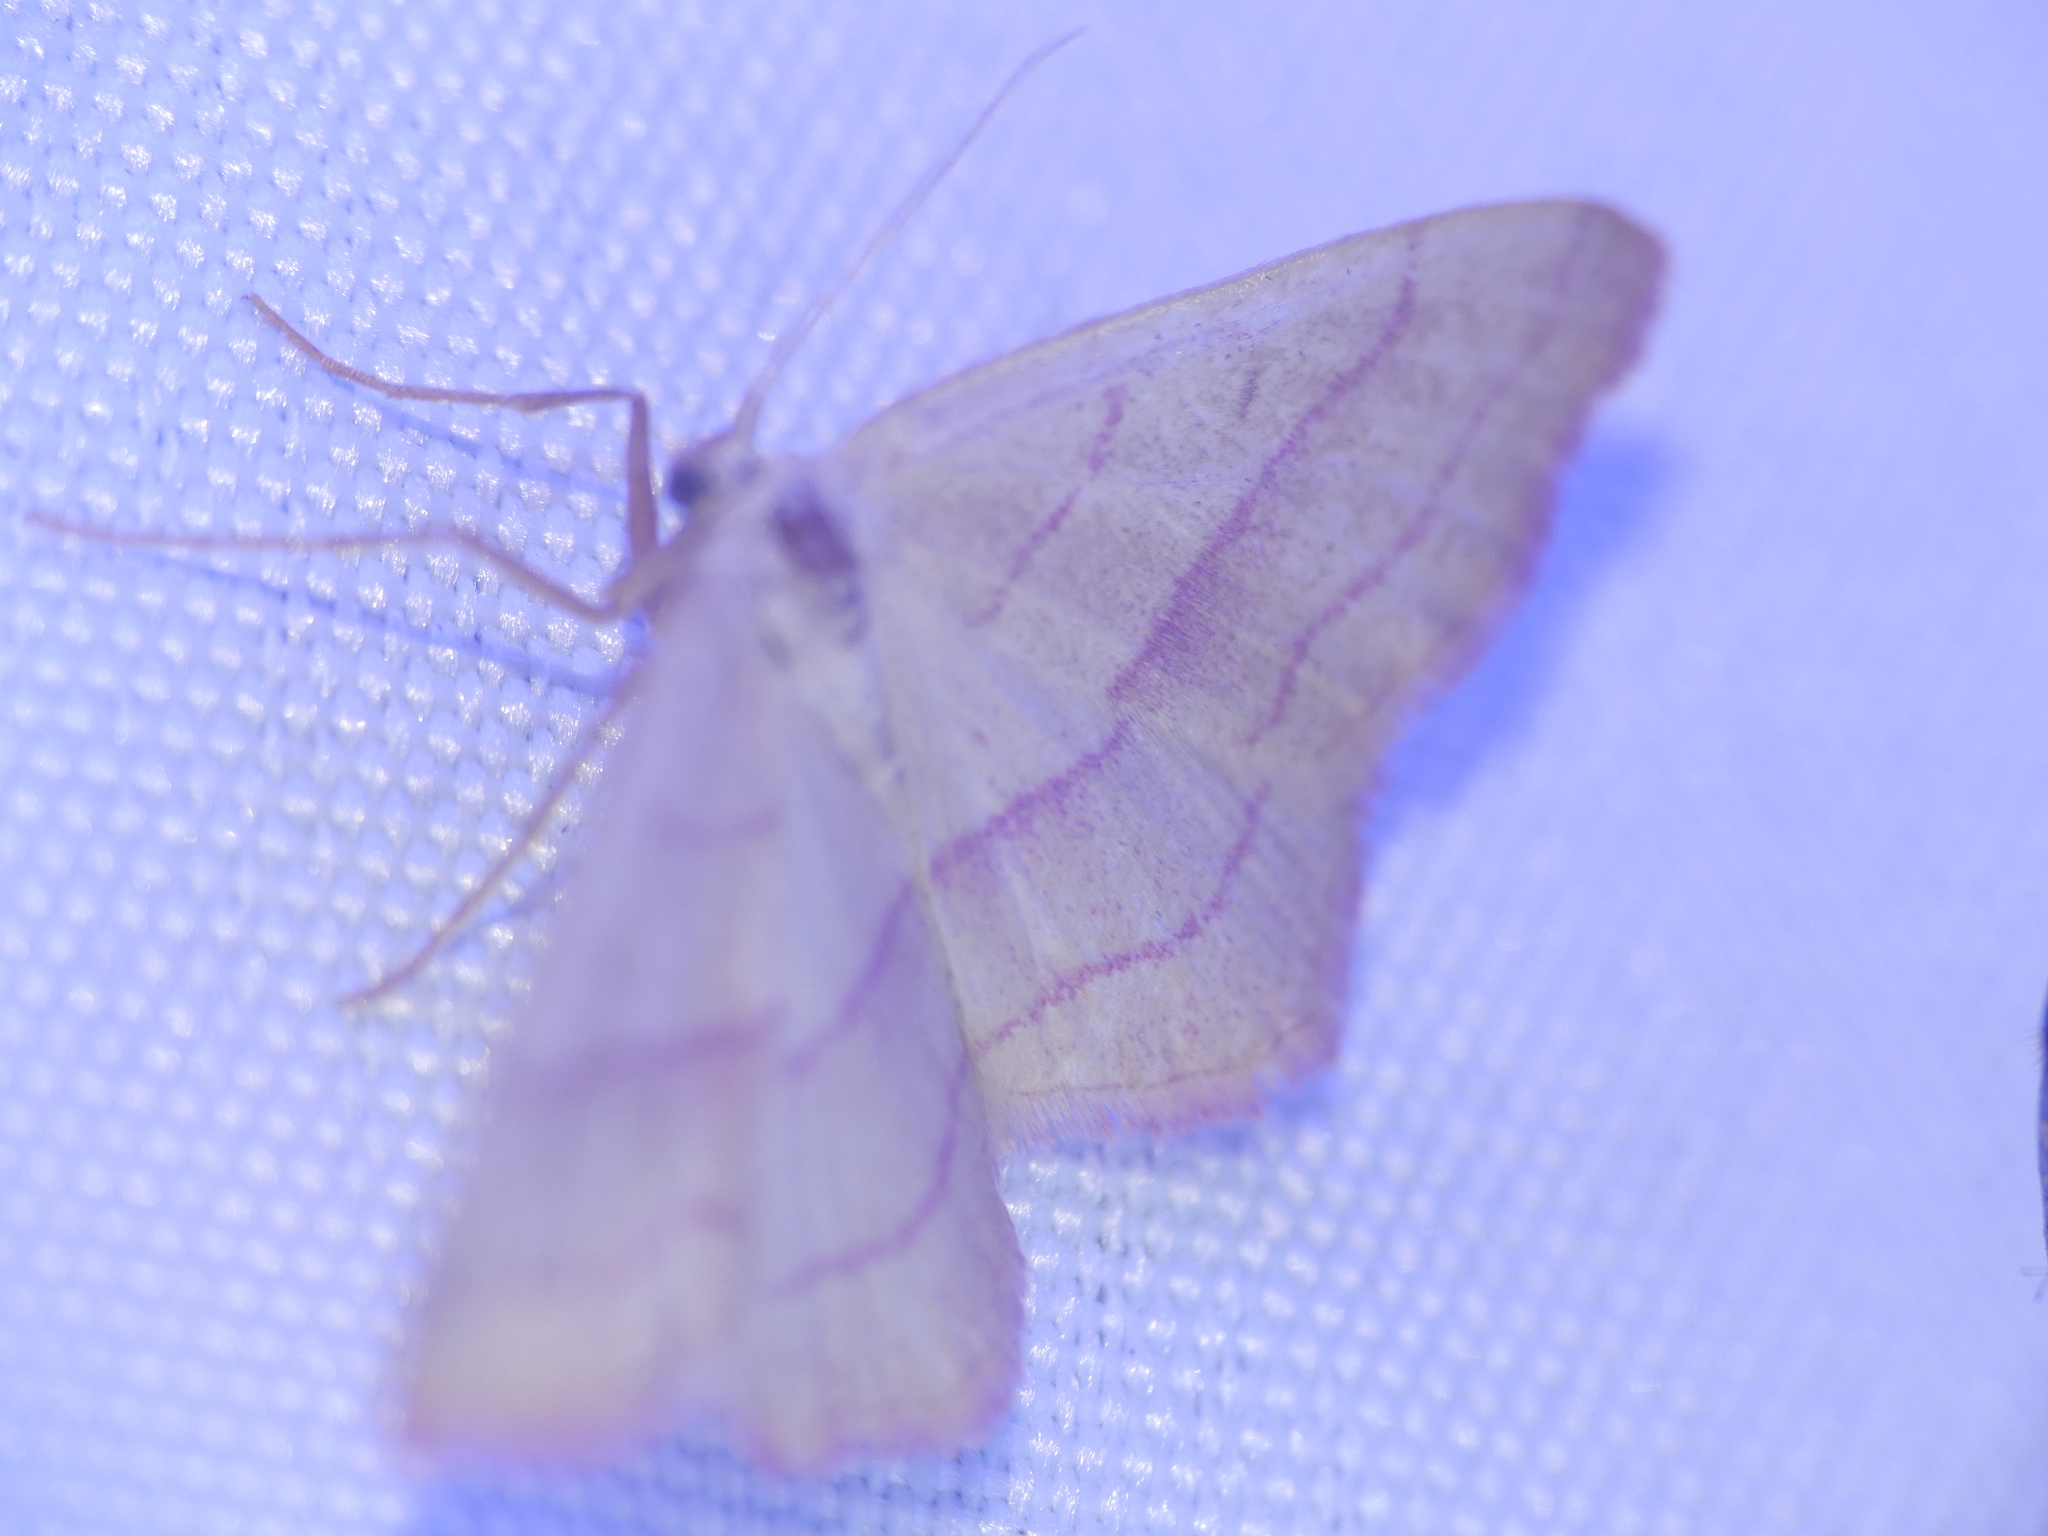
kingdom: Animalia
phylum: Arthropoda
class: Insecta
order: Lepidoptera
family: Geometridae
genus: Rhodostrophia
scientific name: Rhodostrophia vibicaria
